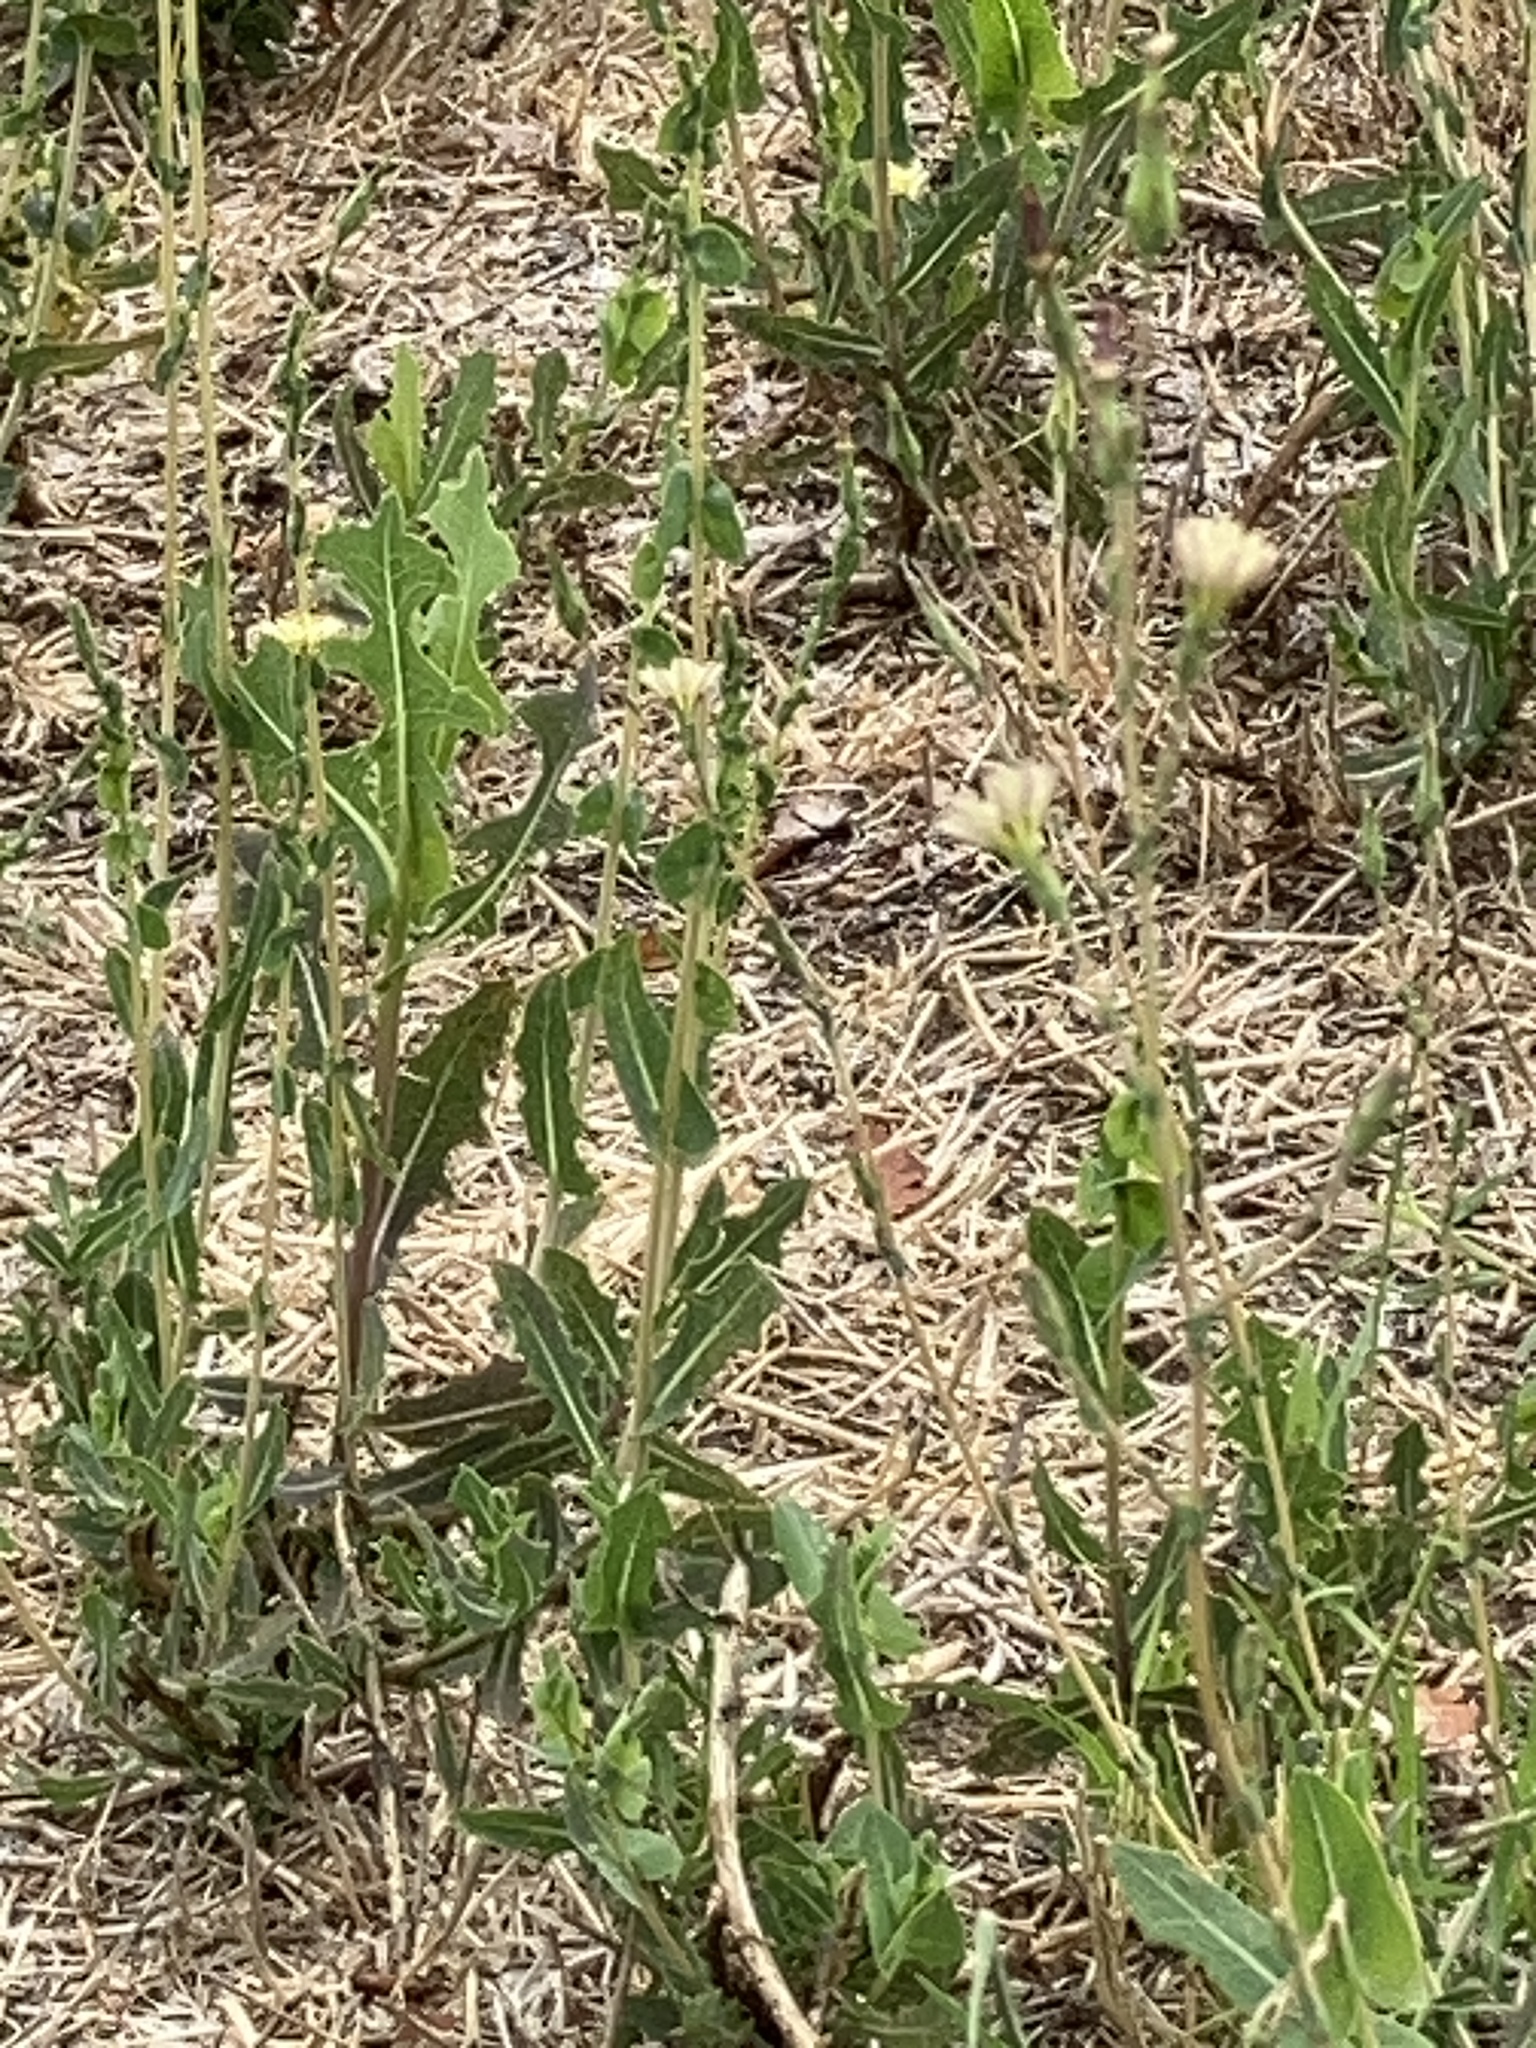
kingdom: Plantae
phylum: Tracheophyta
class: Magnoliopsida
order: Asterales
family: Asteraceae
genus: Lactuca
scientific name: Lactuca serriola
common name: Prickly lettuce
